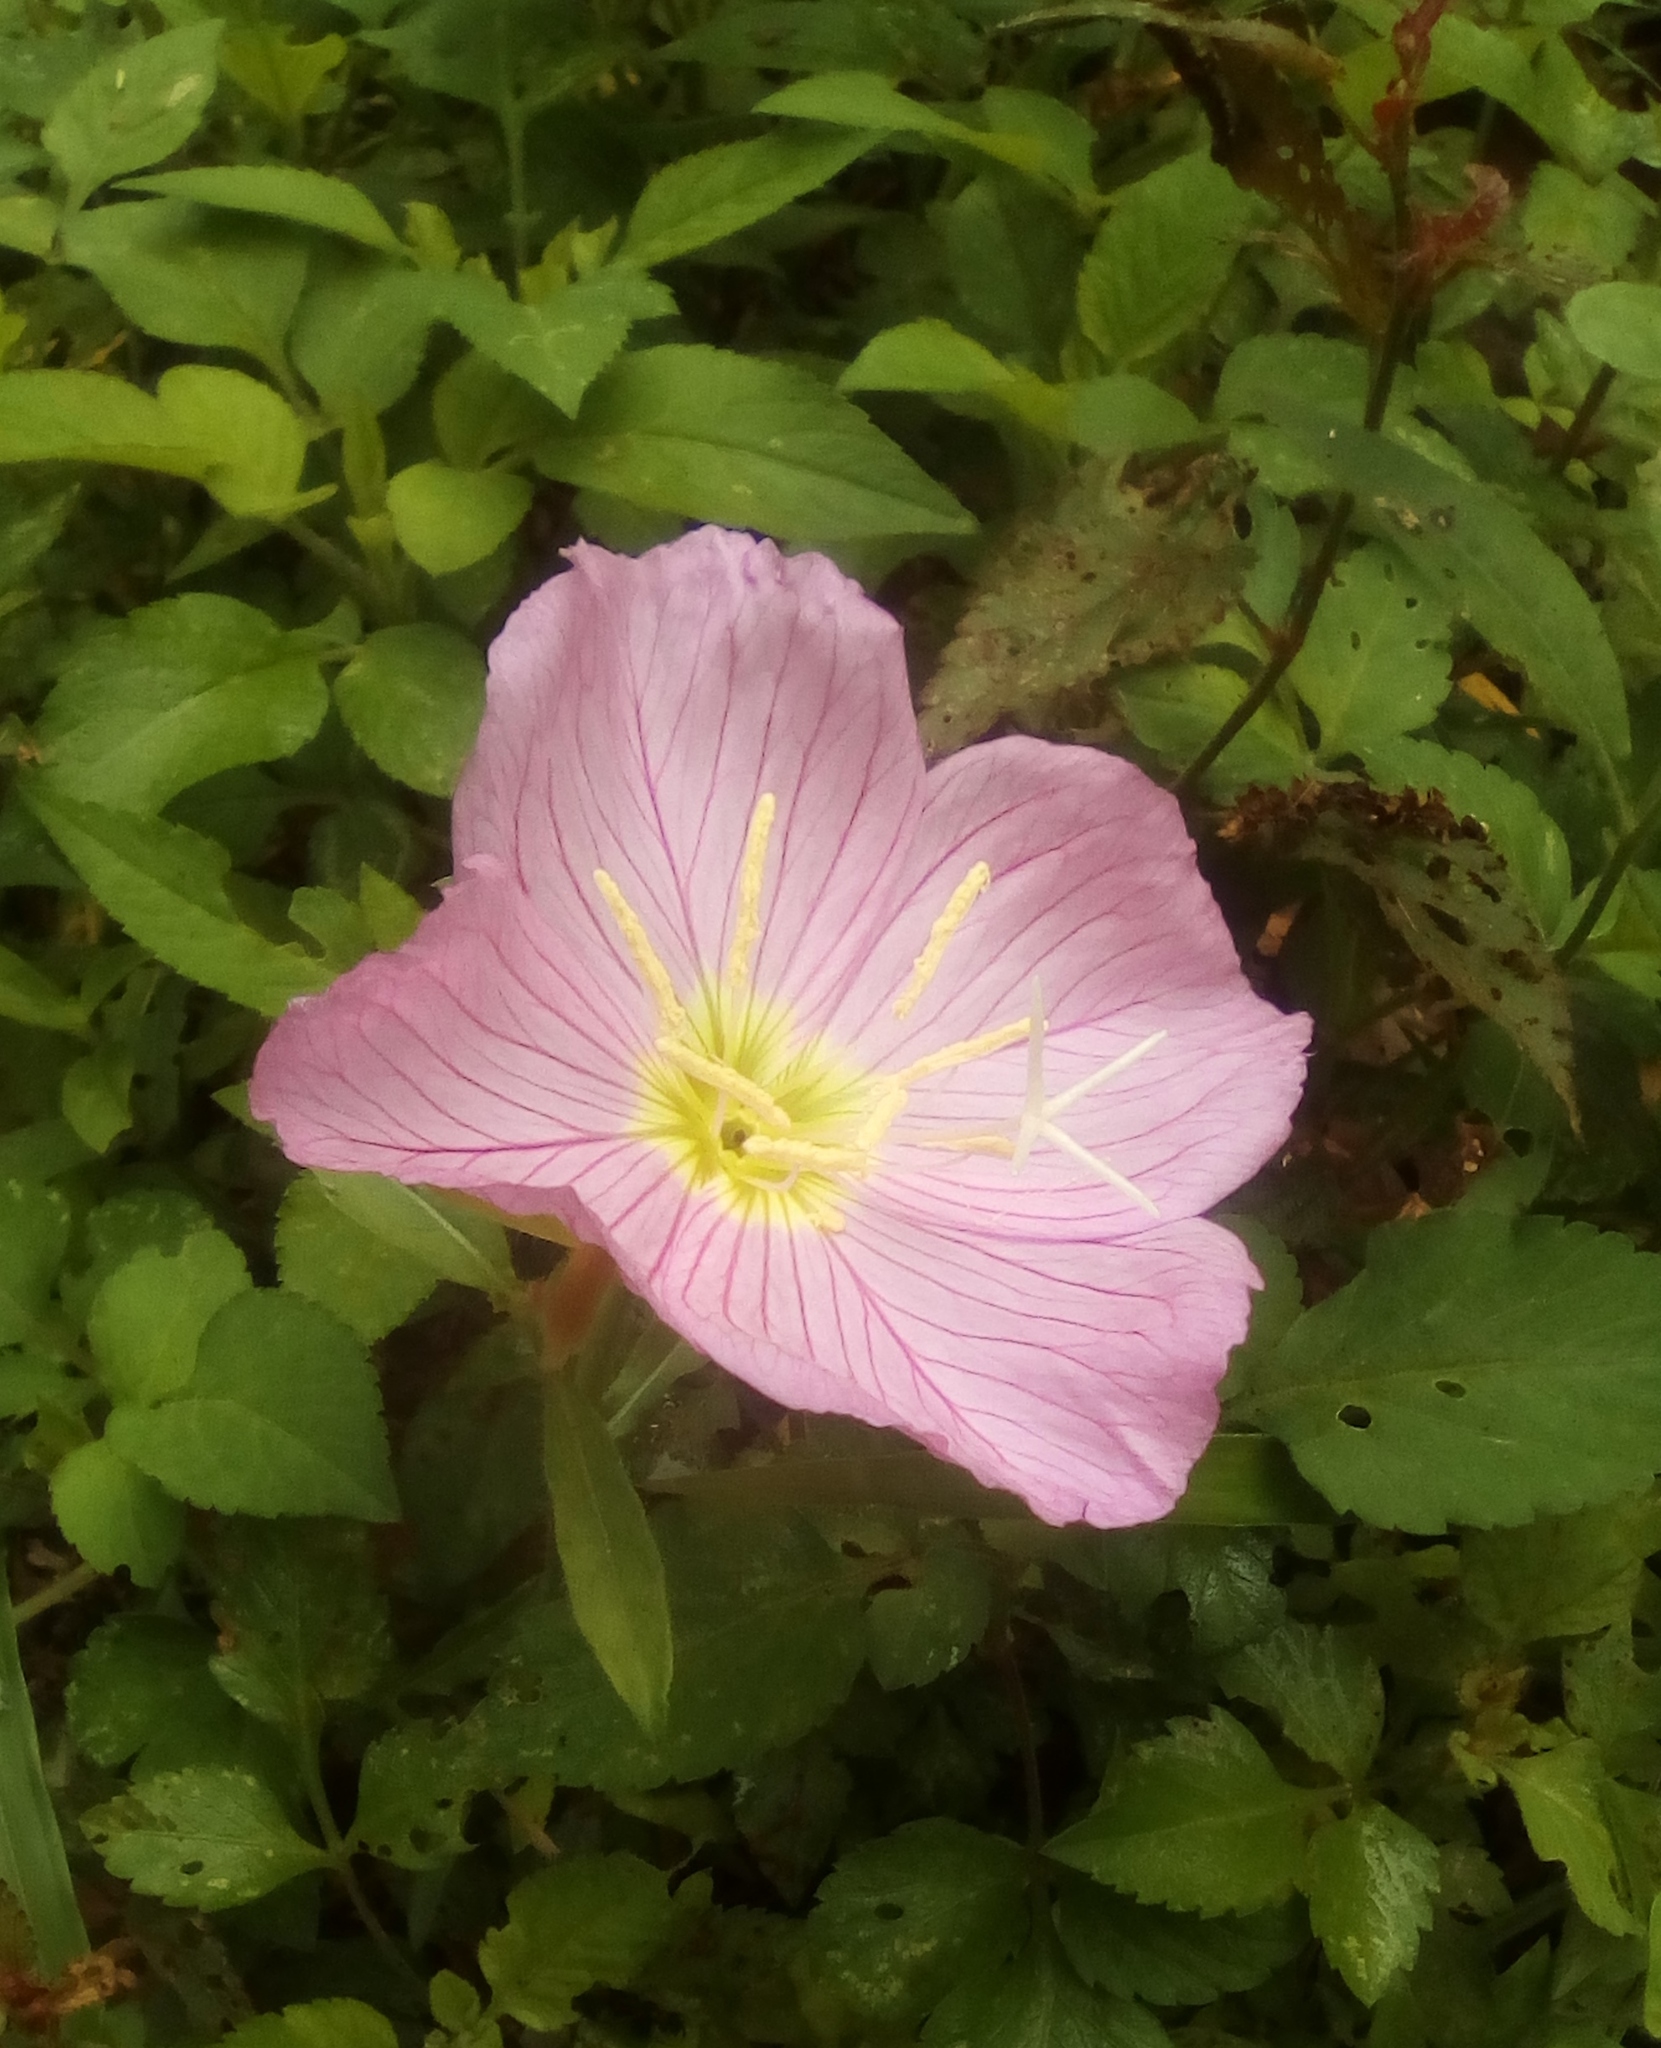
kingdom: Plantae
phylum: Tracheophyta
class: Magnoliopsida
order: Myrtales
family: Onagraceae
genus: Oenothera
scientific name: Oenothera speciosa
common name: White evening-primrose
